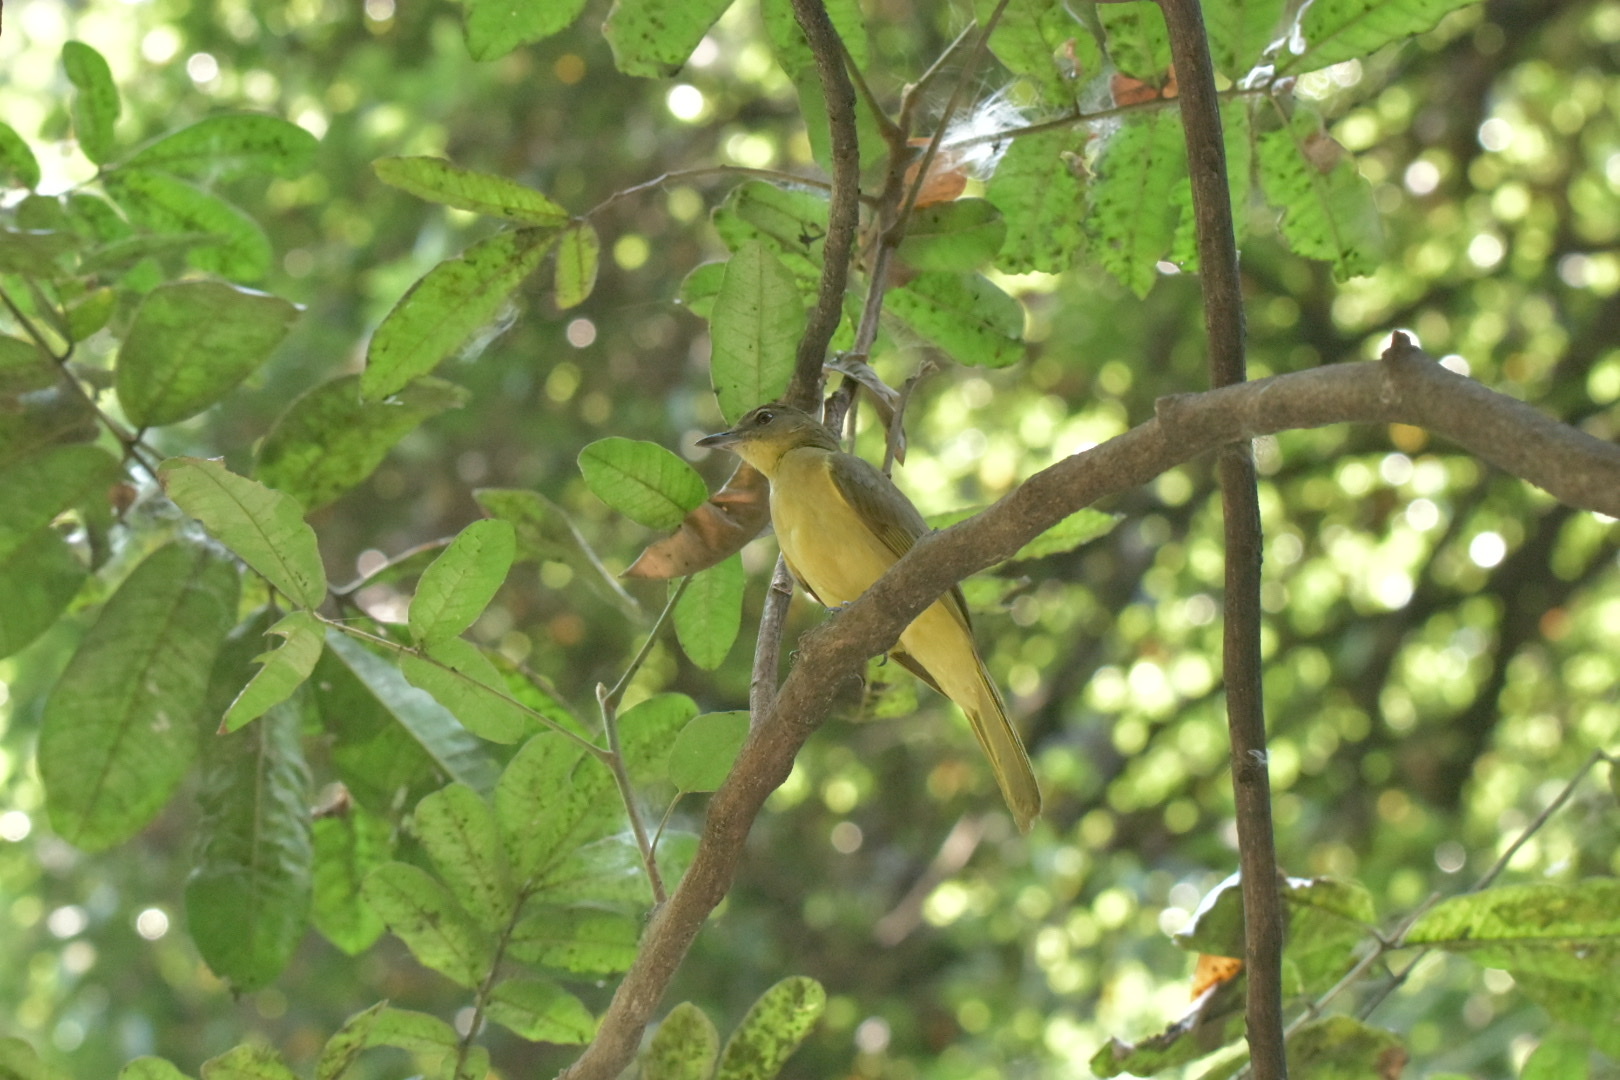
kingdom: Animalia
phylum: Chordata
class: Aves
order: Passeriformes
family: Pycnonotidae
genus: Chlorocichla
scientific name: Chlorocichla flaviventris
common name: Yellow-bellied greenbul
